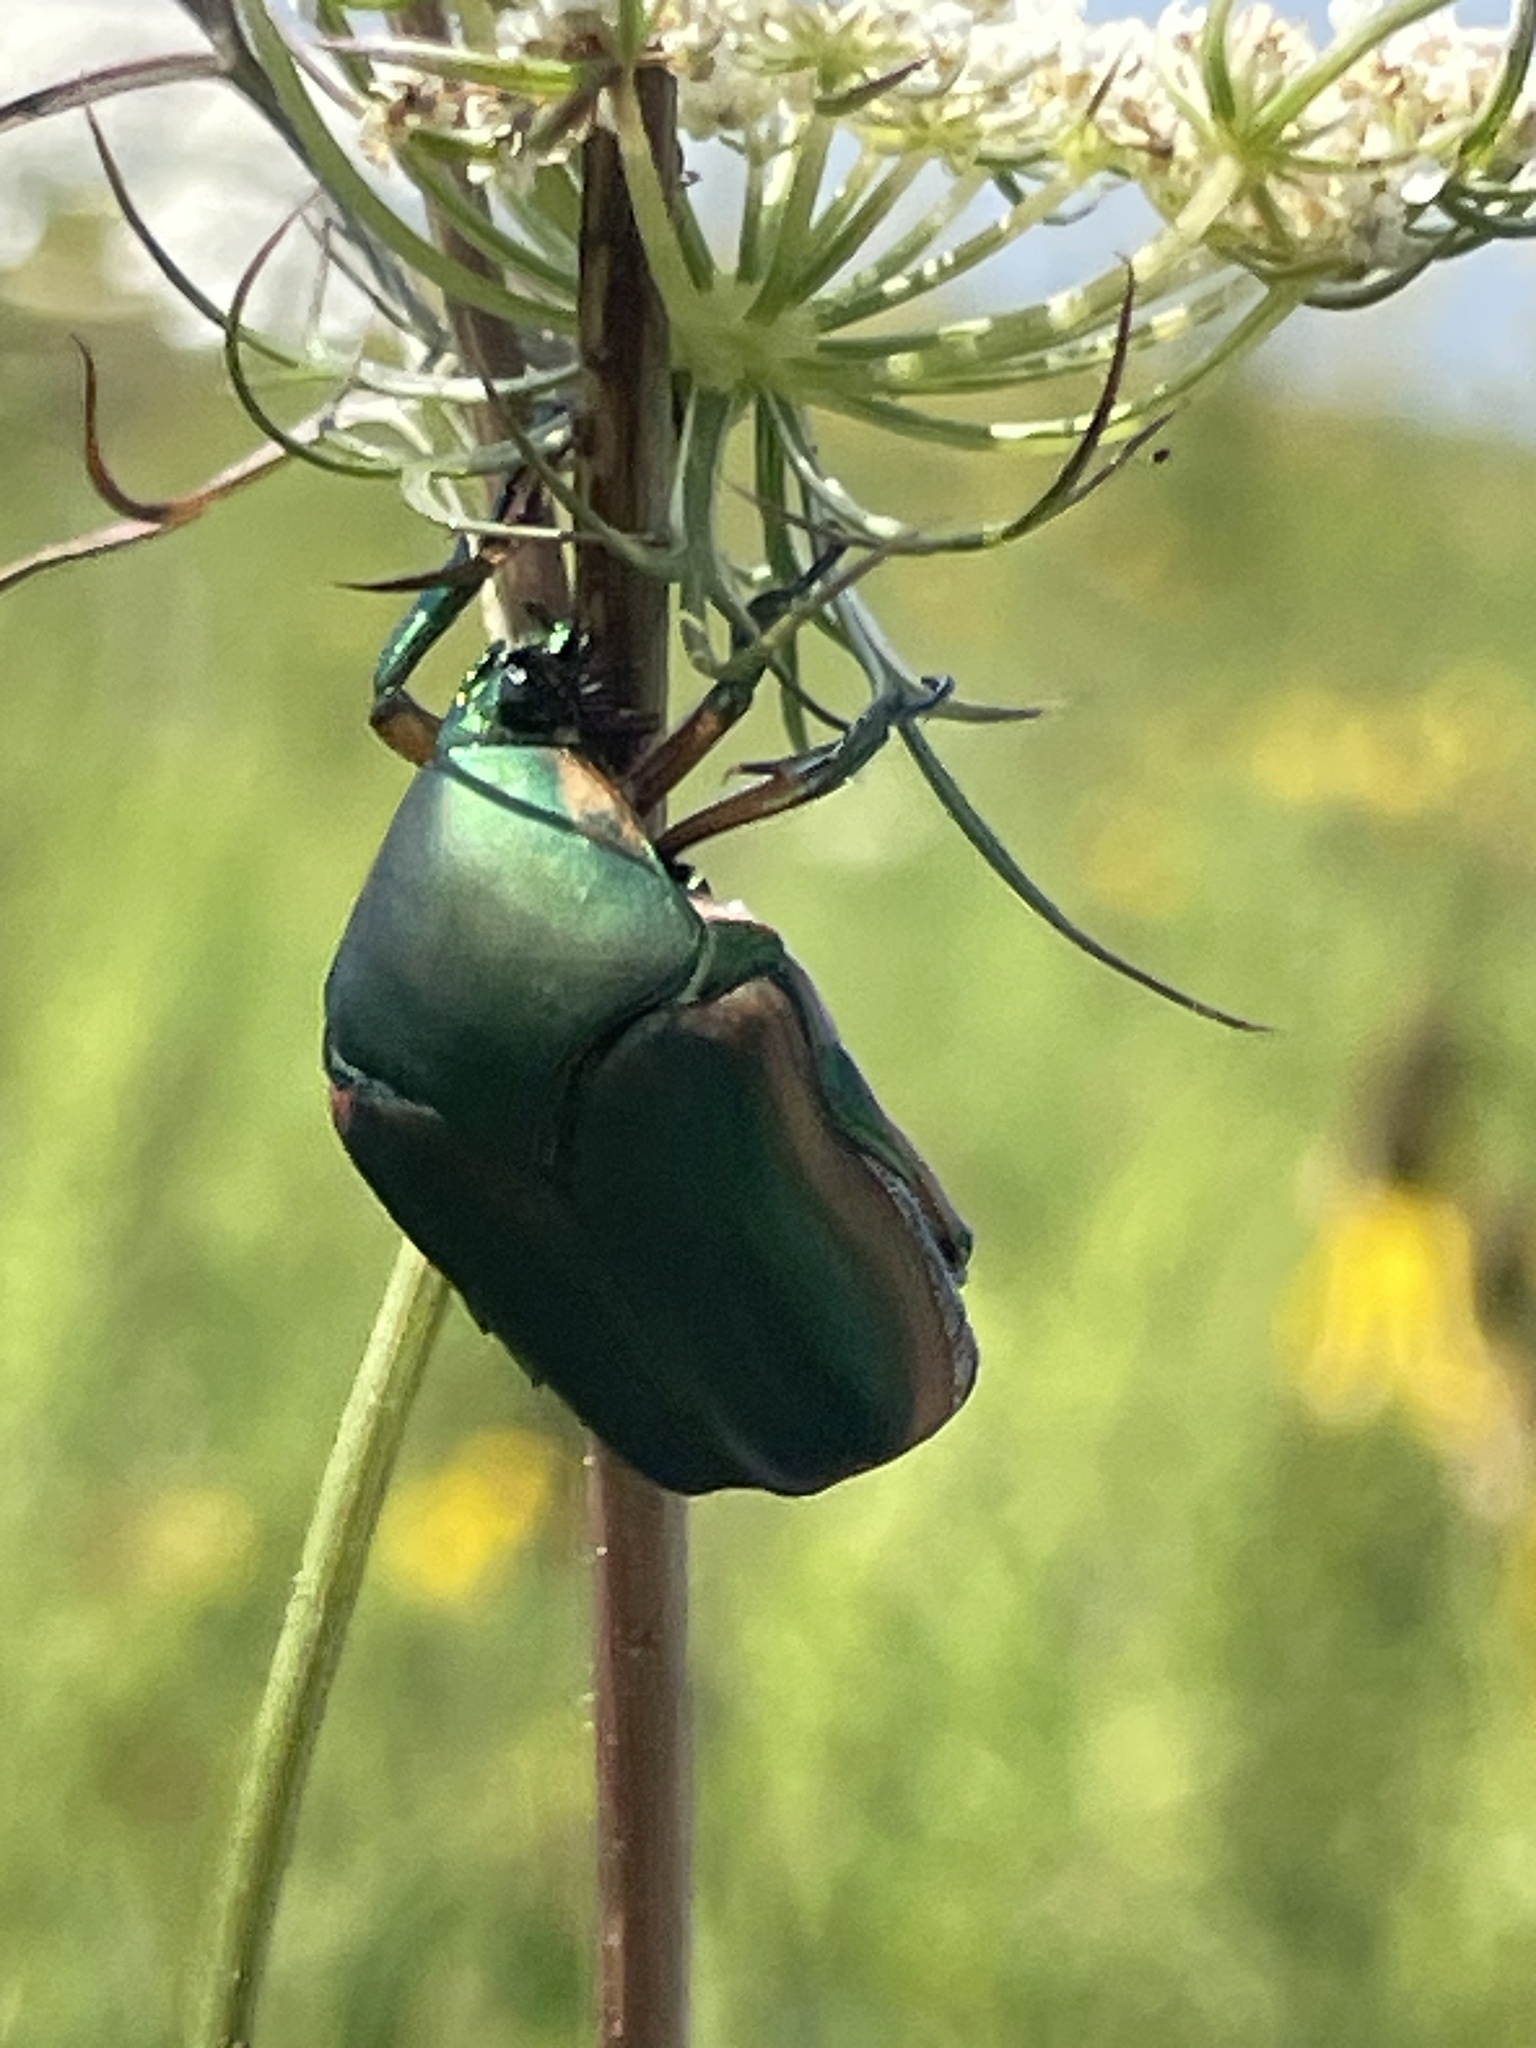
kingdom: Animalia
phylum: Arthropoda
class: Insecta
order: Coleoptera
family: Scarabaeidae
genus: Cotinis
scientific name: Cotinis nitida
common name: Common green june beetle
